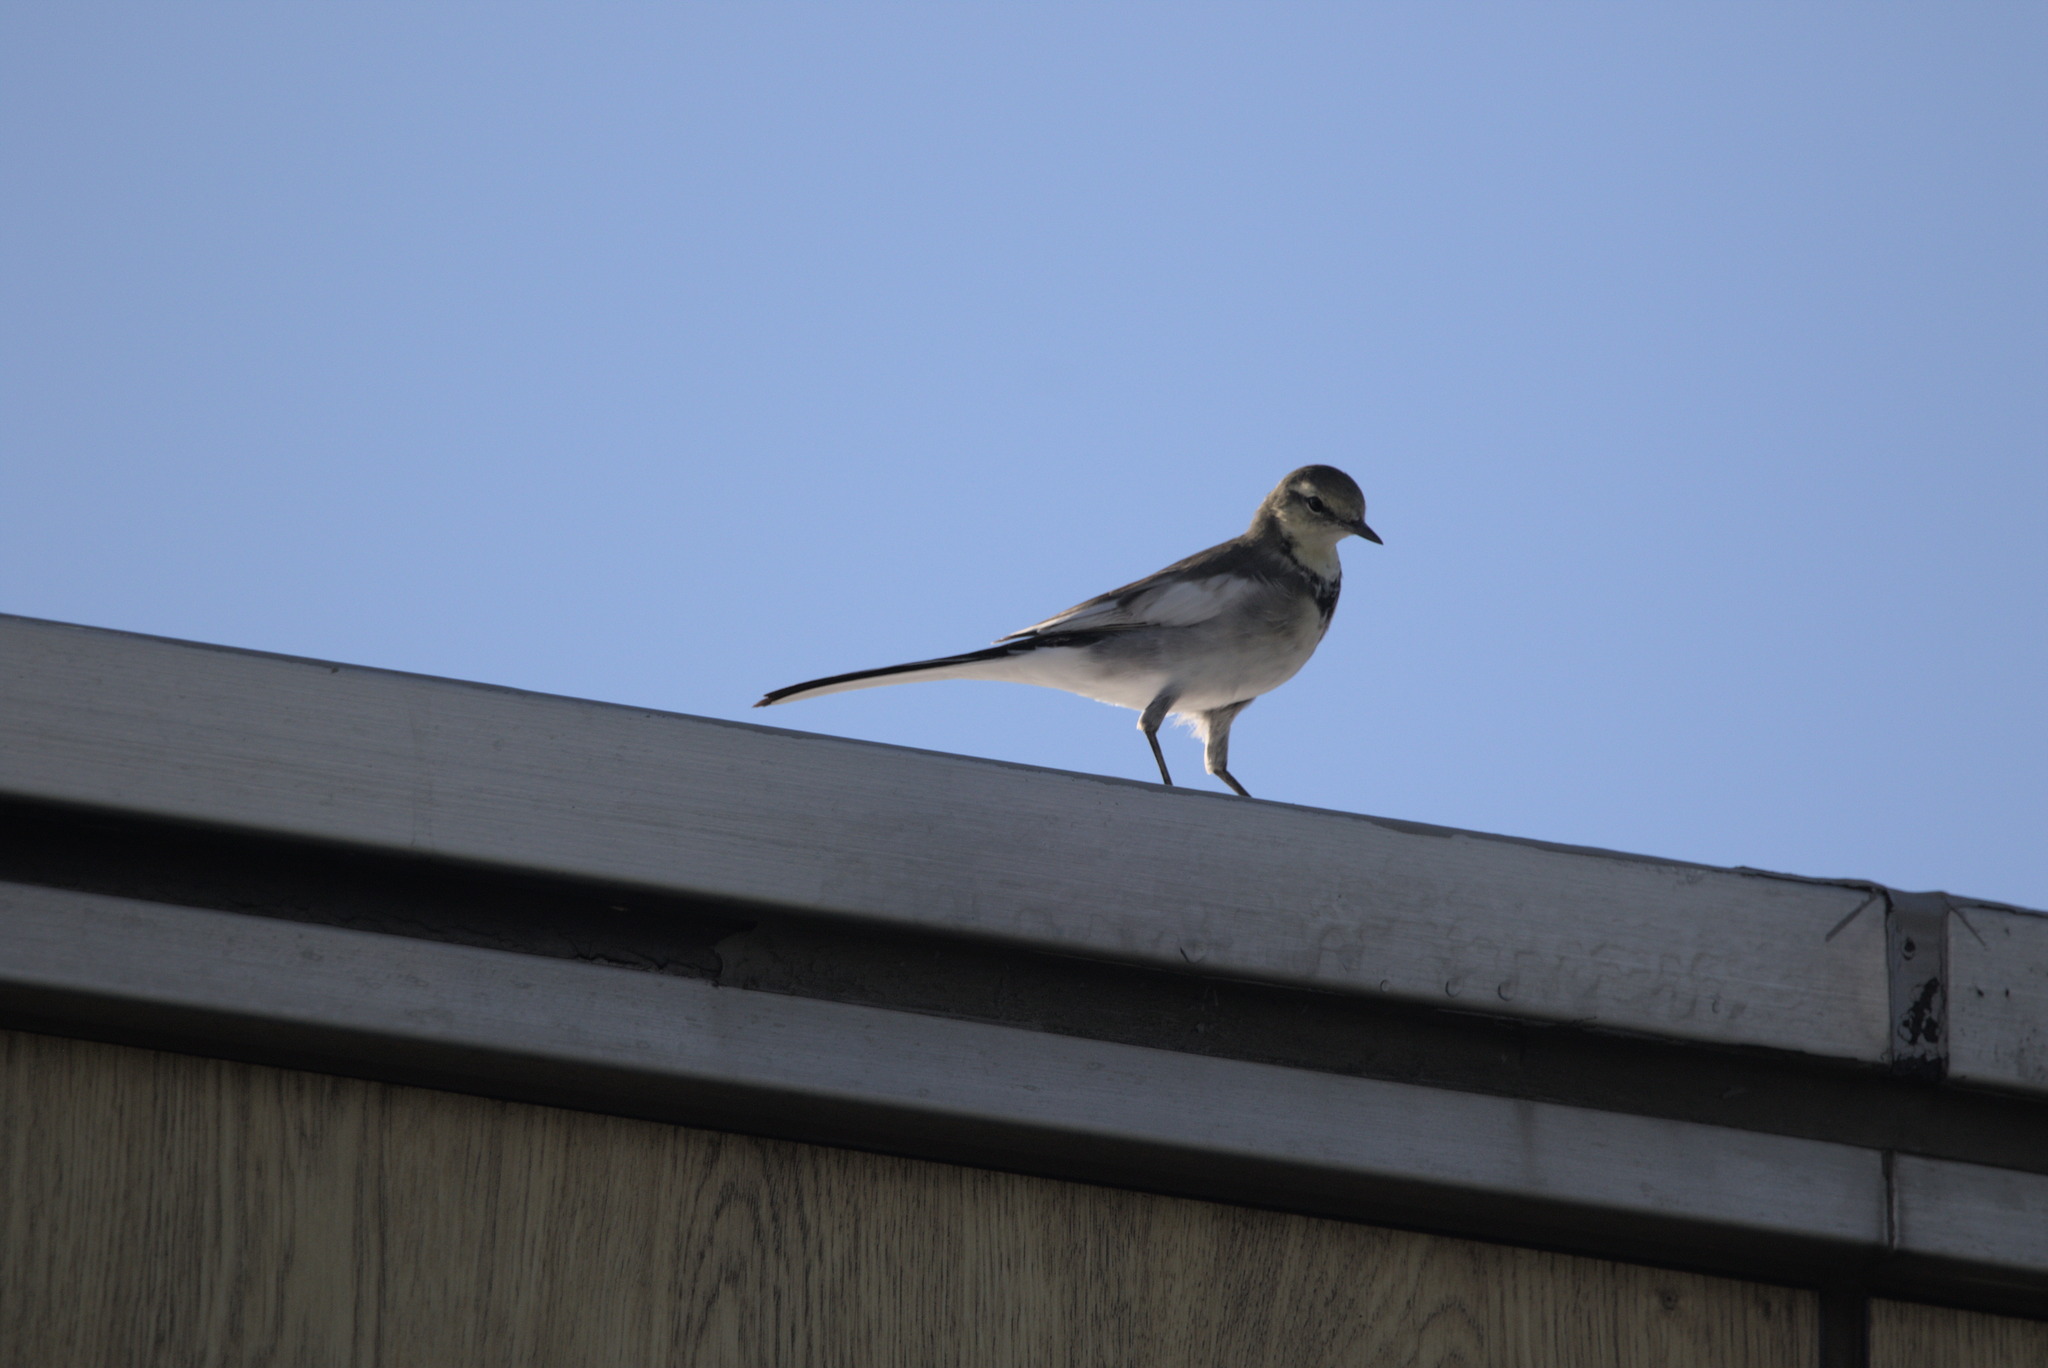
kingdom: Animalia
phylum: Chordata
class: Aves
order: Passeriformes
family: Motacillidae
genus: Motacilla
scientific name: Motacilla alba
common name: White wagtail
